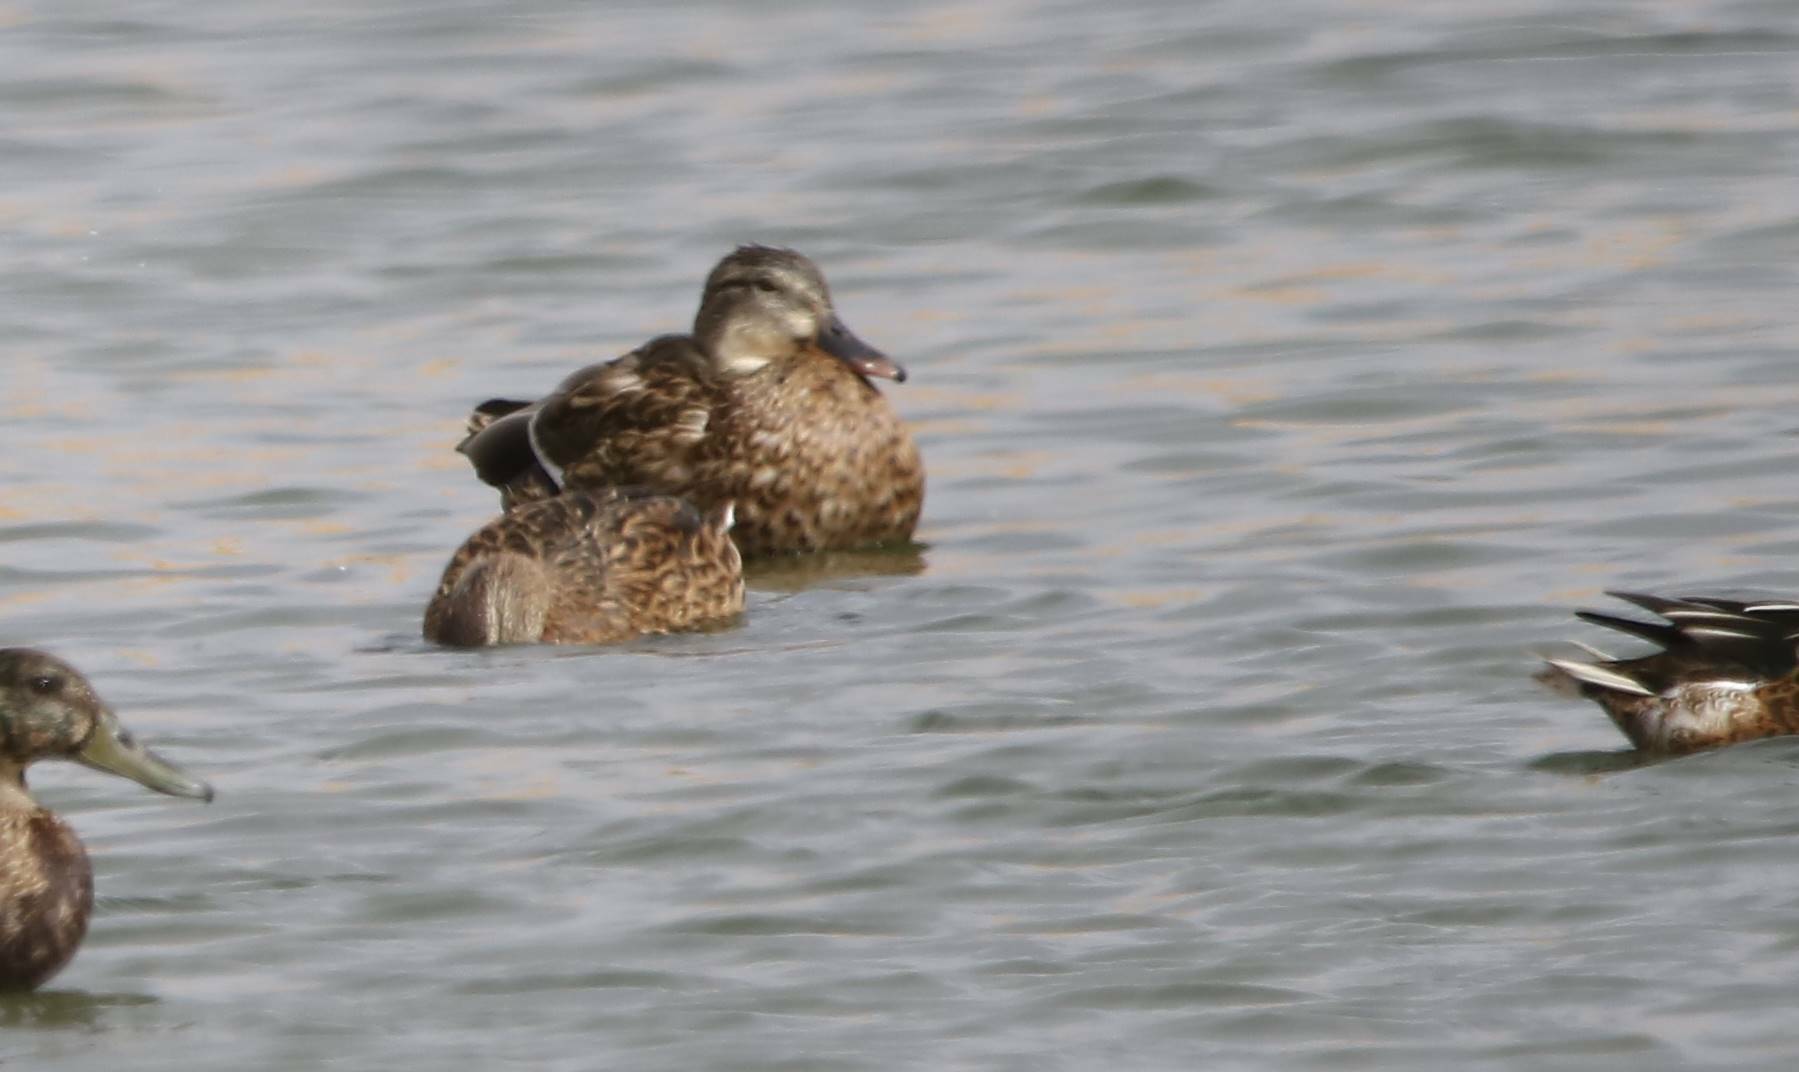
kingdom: Animalia
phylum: Chordata
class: Aves
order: Anseriformes
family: Anatidae
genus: Anas
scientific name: Anas platyrhynchos
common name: Mallard
